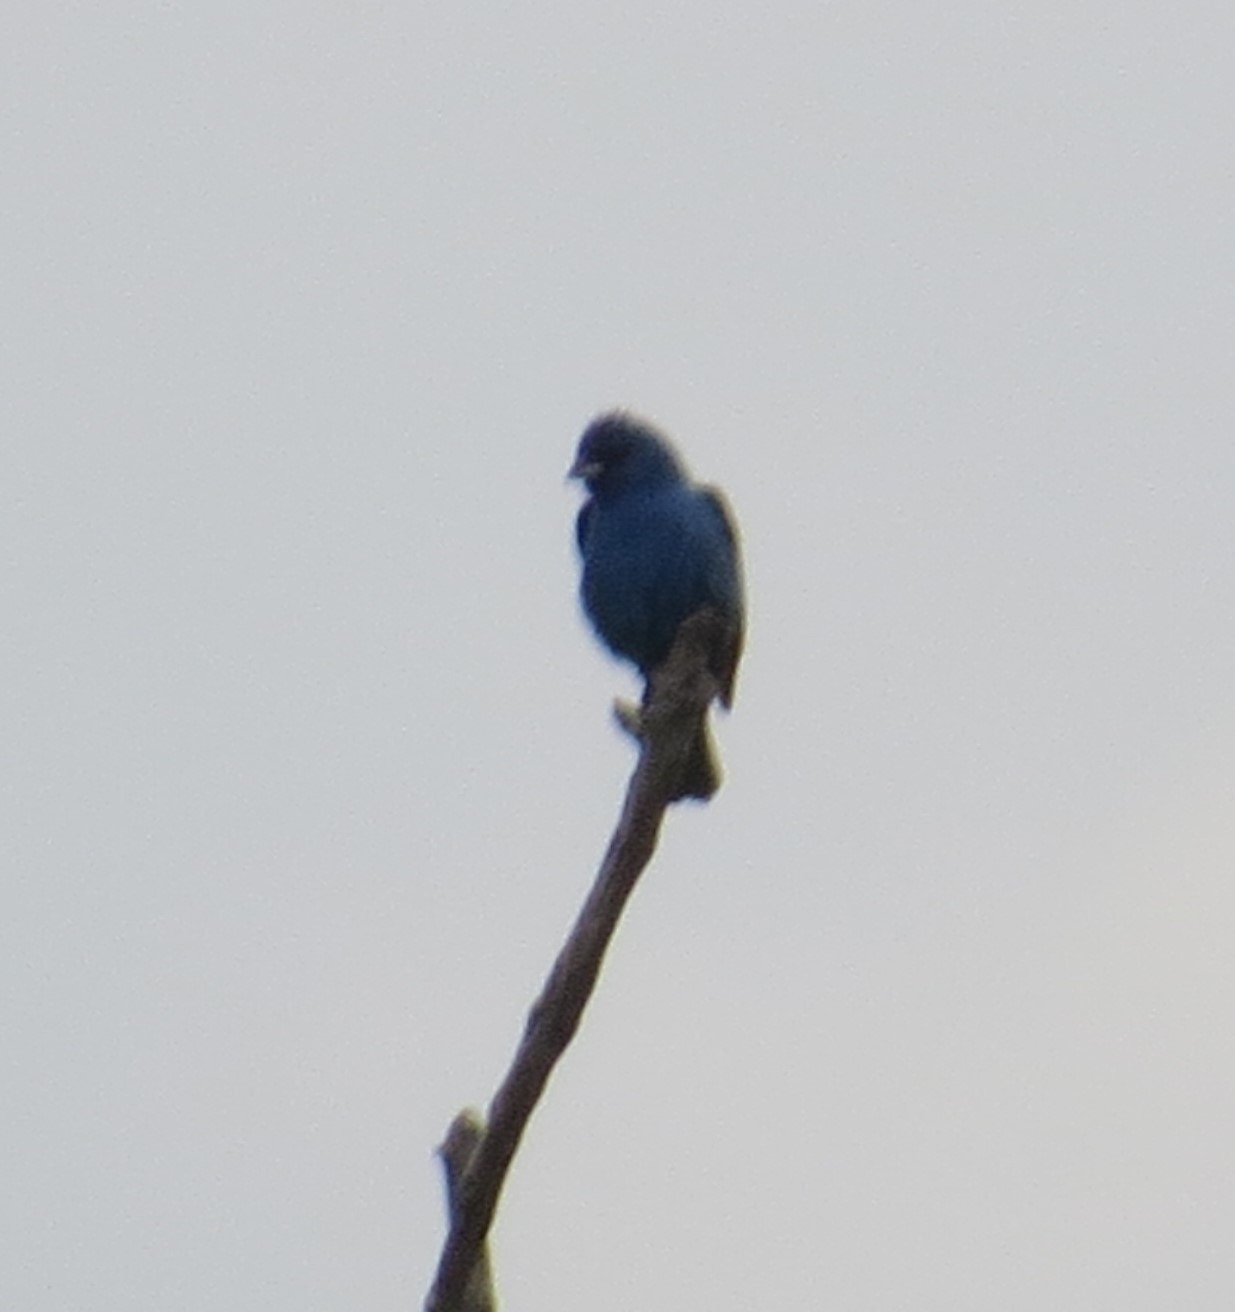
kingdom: Animalia
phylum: Chordata
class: Aves
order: Passeriformes
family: Cardinalidae
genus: Passerina
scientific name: Passerina cyanea
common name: Indigo bunting
